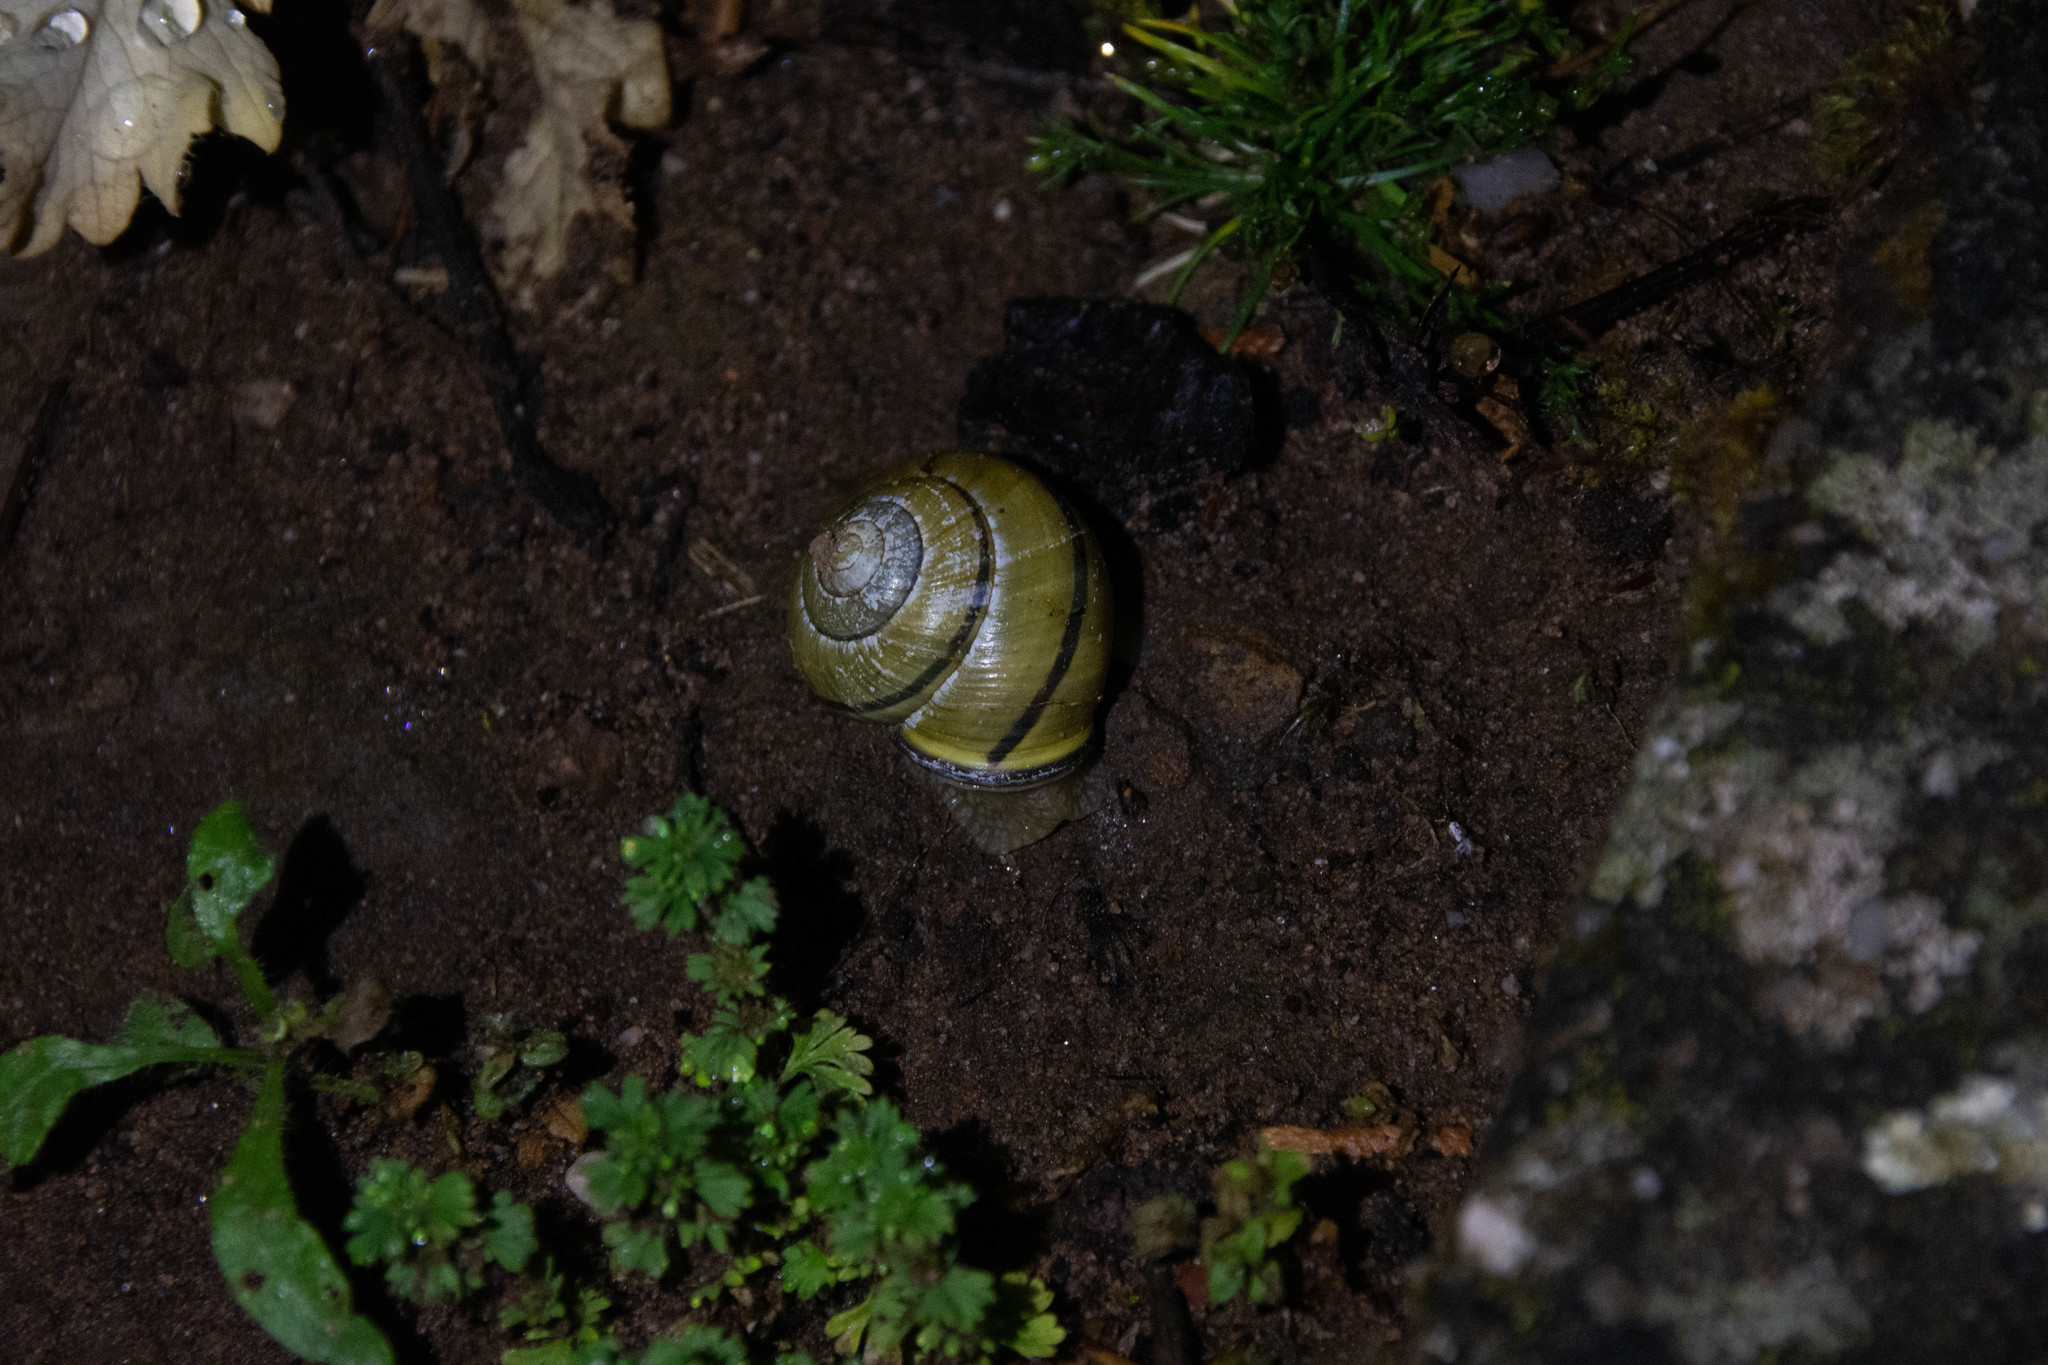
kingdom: Animalia
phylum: Mollusca
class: Gastropoda
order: Stylommatophora
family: Helicidae
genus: Cepaea
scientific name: Cepaea nemoralis
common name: Grovesnail
